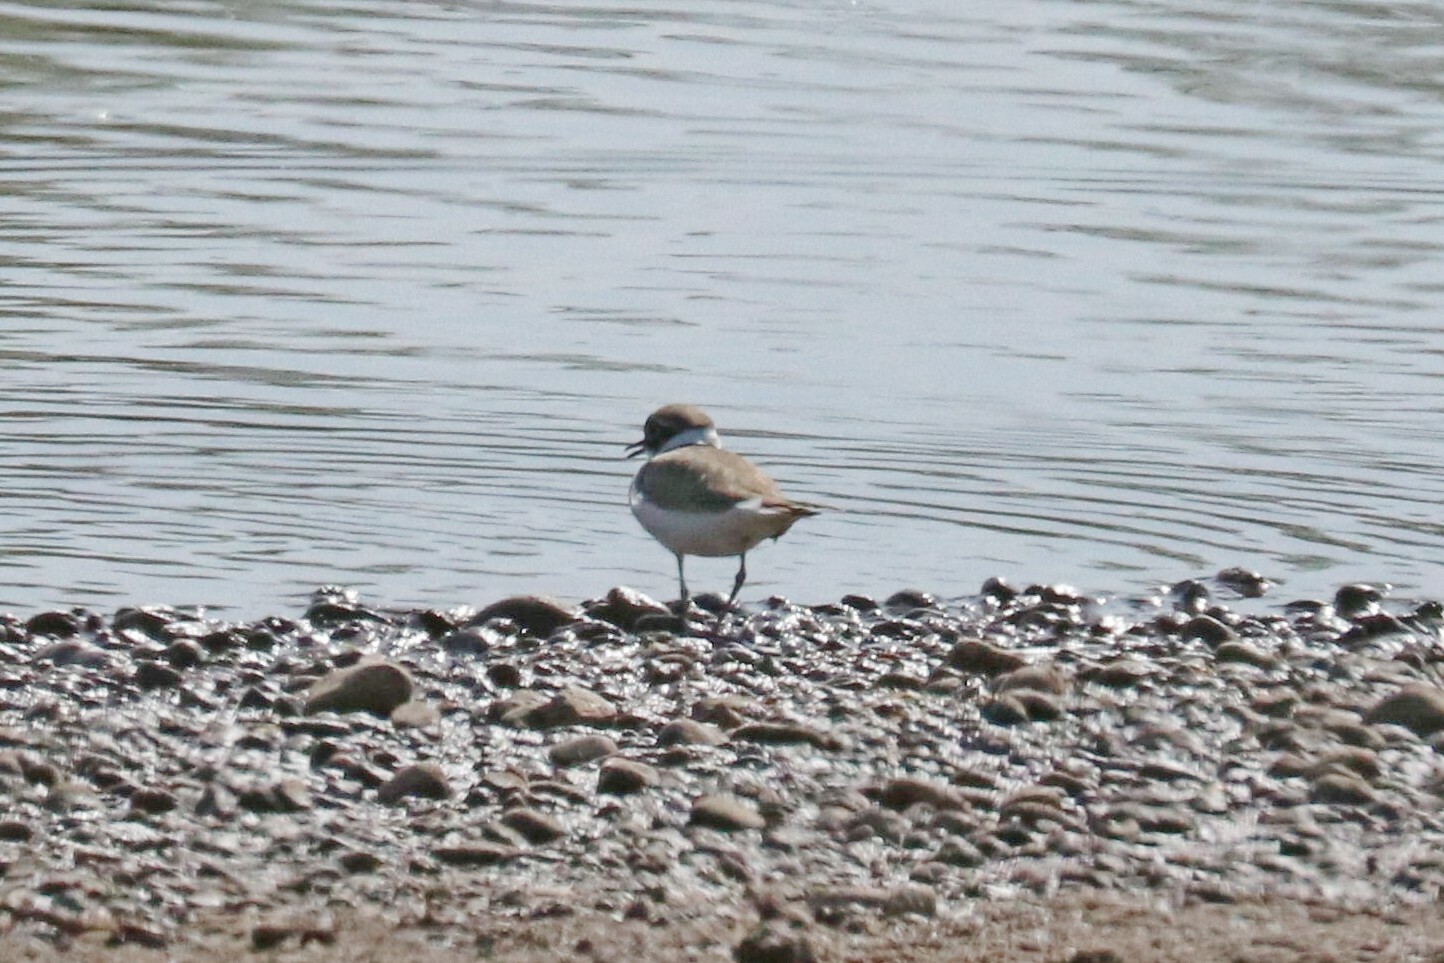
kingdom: Animalia
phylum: Chordata
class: Aves
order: Charadriiformes
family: Charadriidae
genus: Charadrius
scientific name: Charadrius dubius
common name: Little ringed plover
